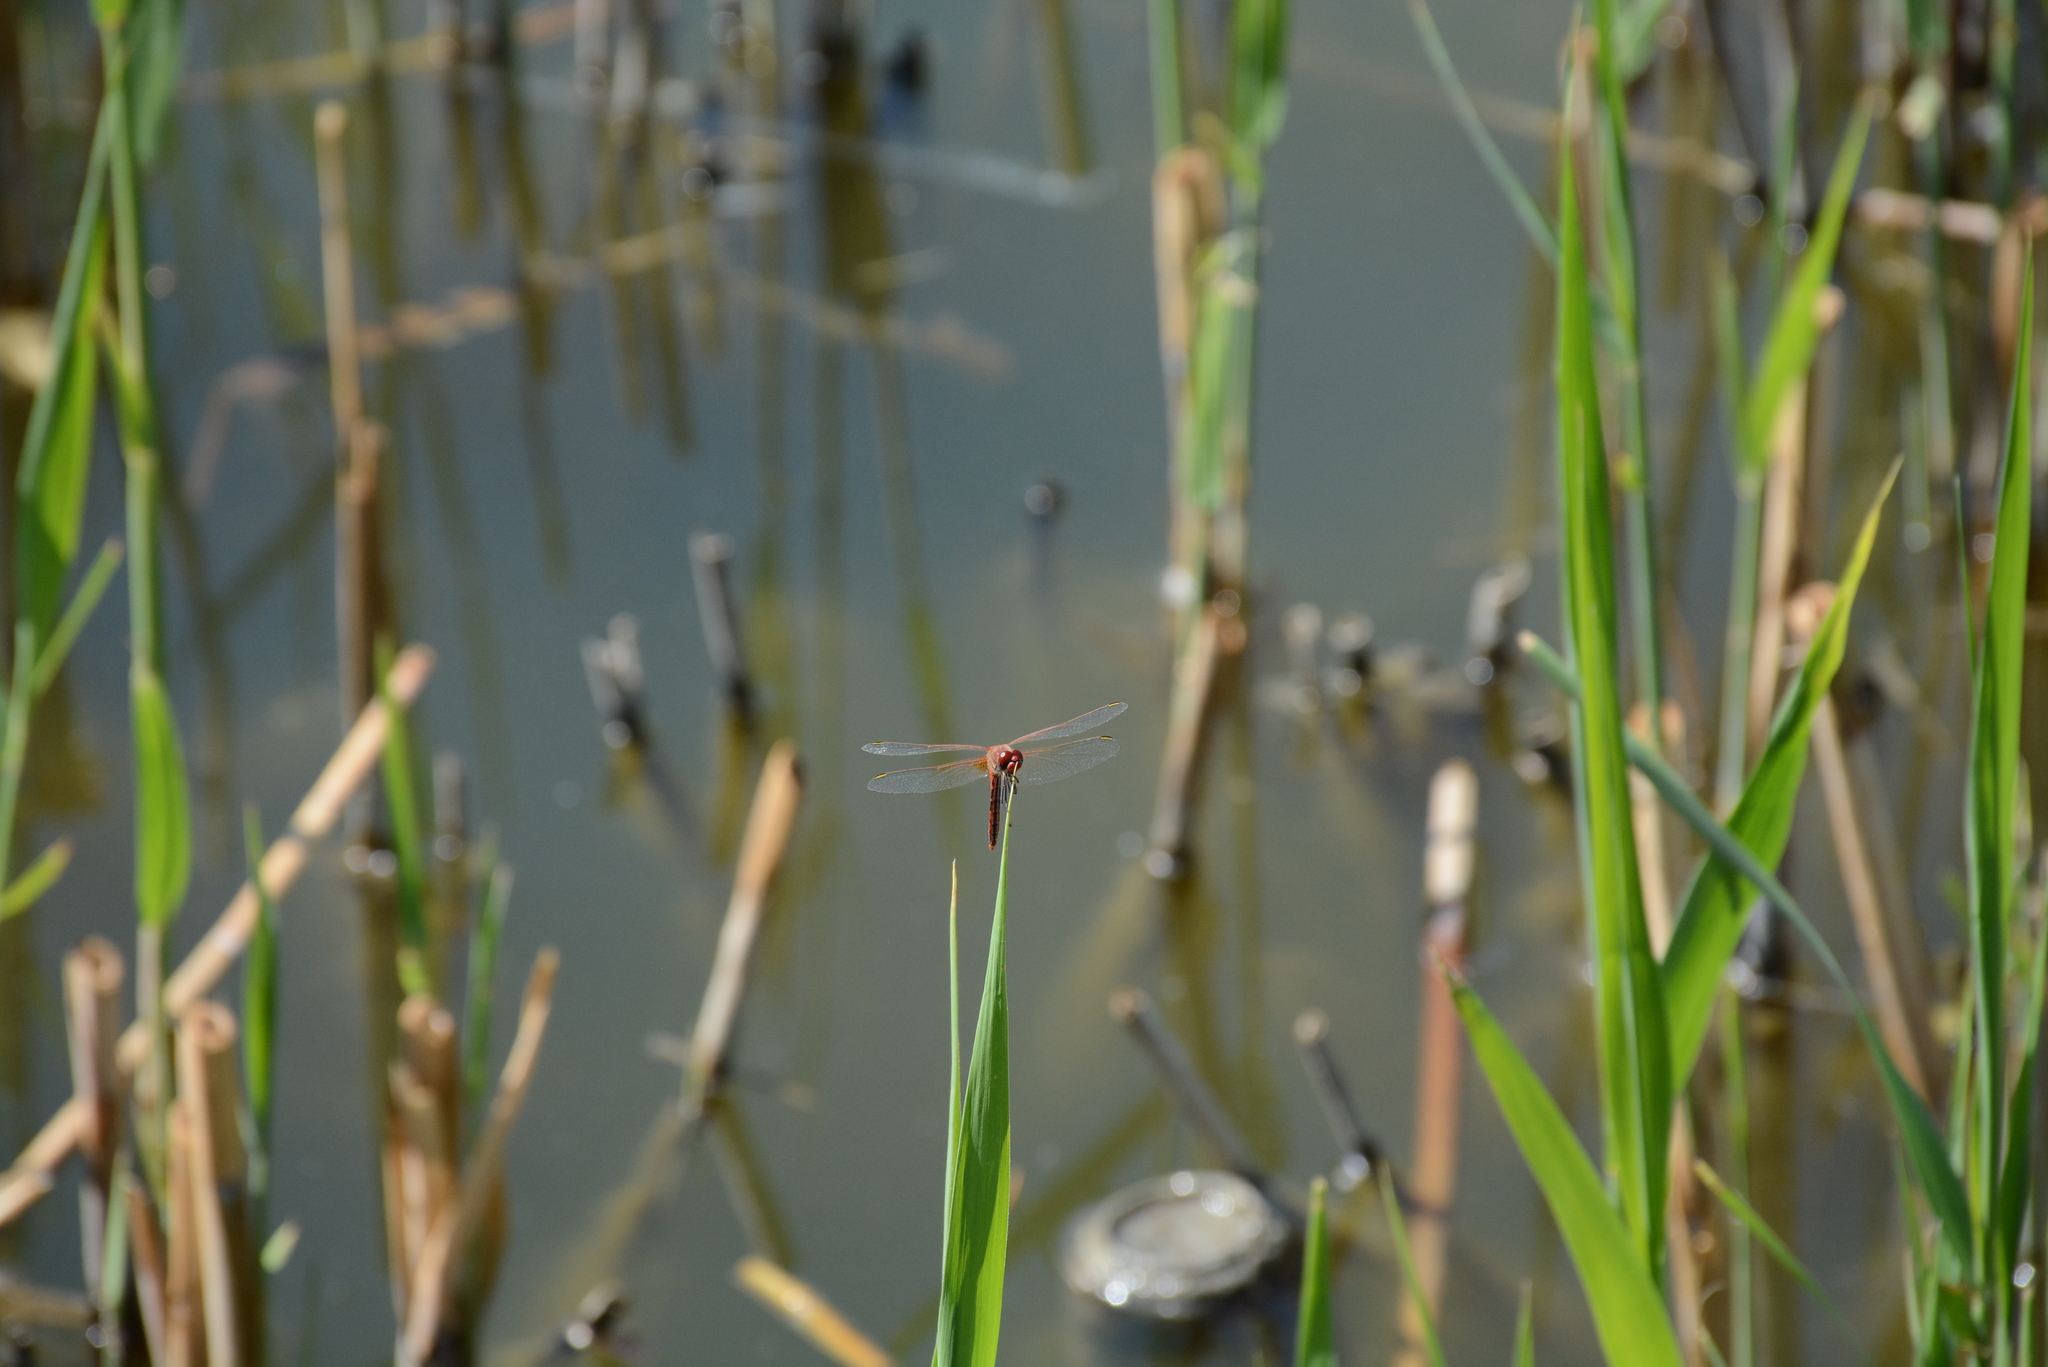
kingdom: Animalia
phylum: Arthropoda
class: Insecta
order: Odonata
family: Libellulidae
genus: Sympetrum
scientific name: Sympetrum fonscolombii
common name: Red-veined darter
